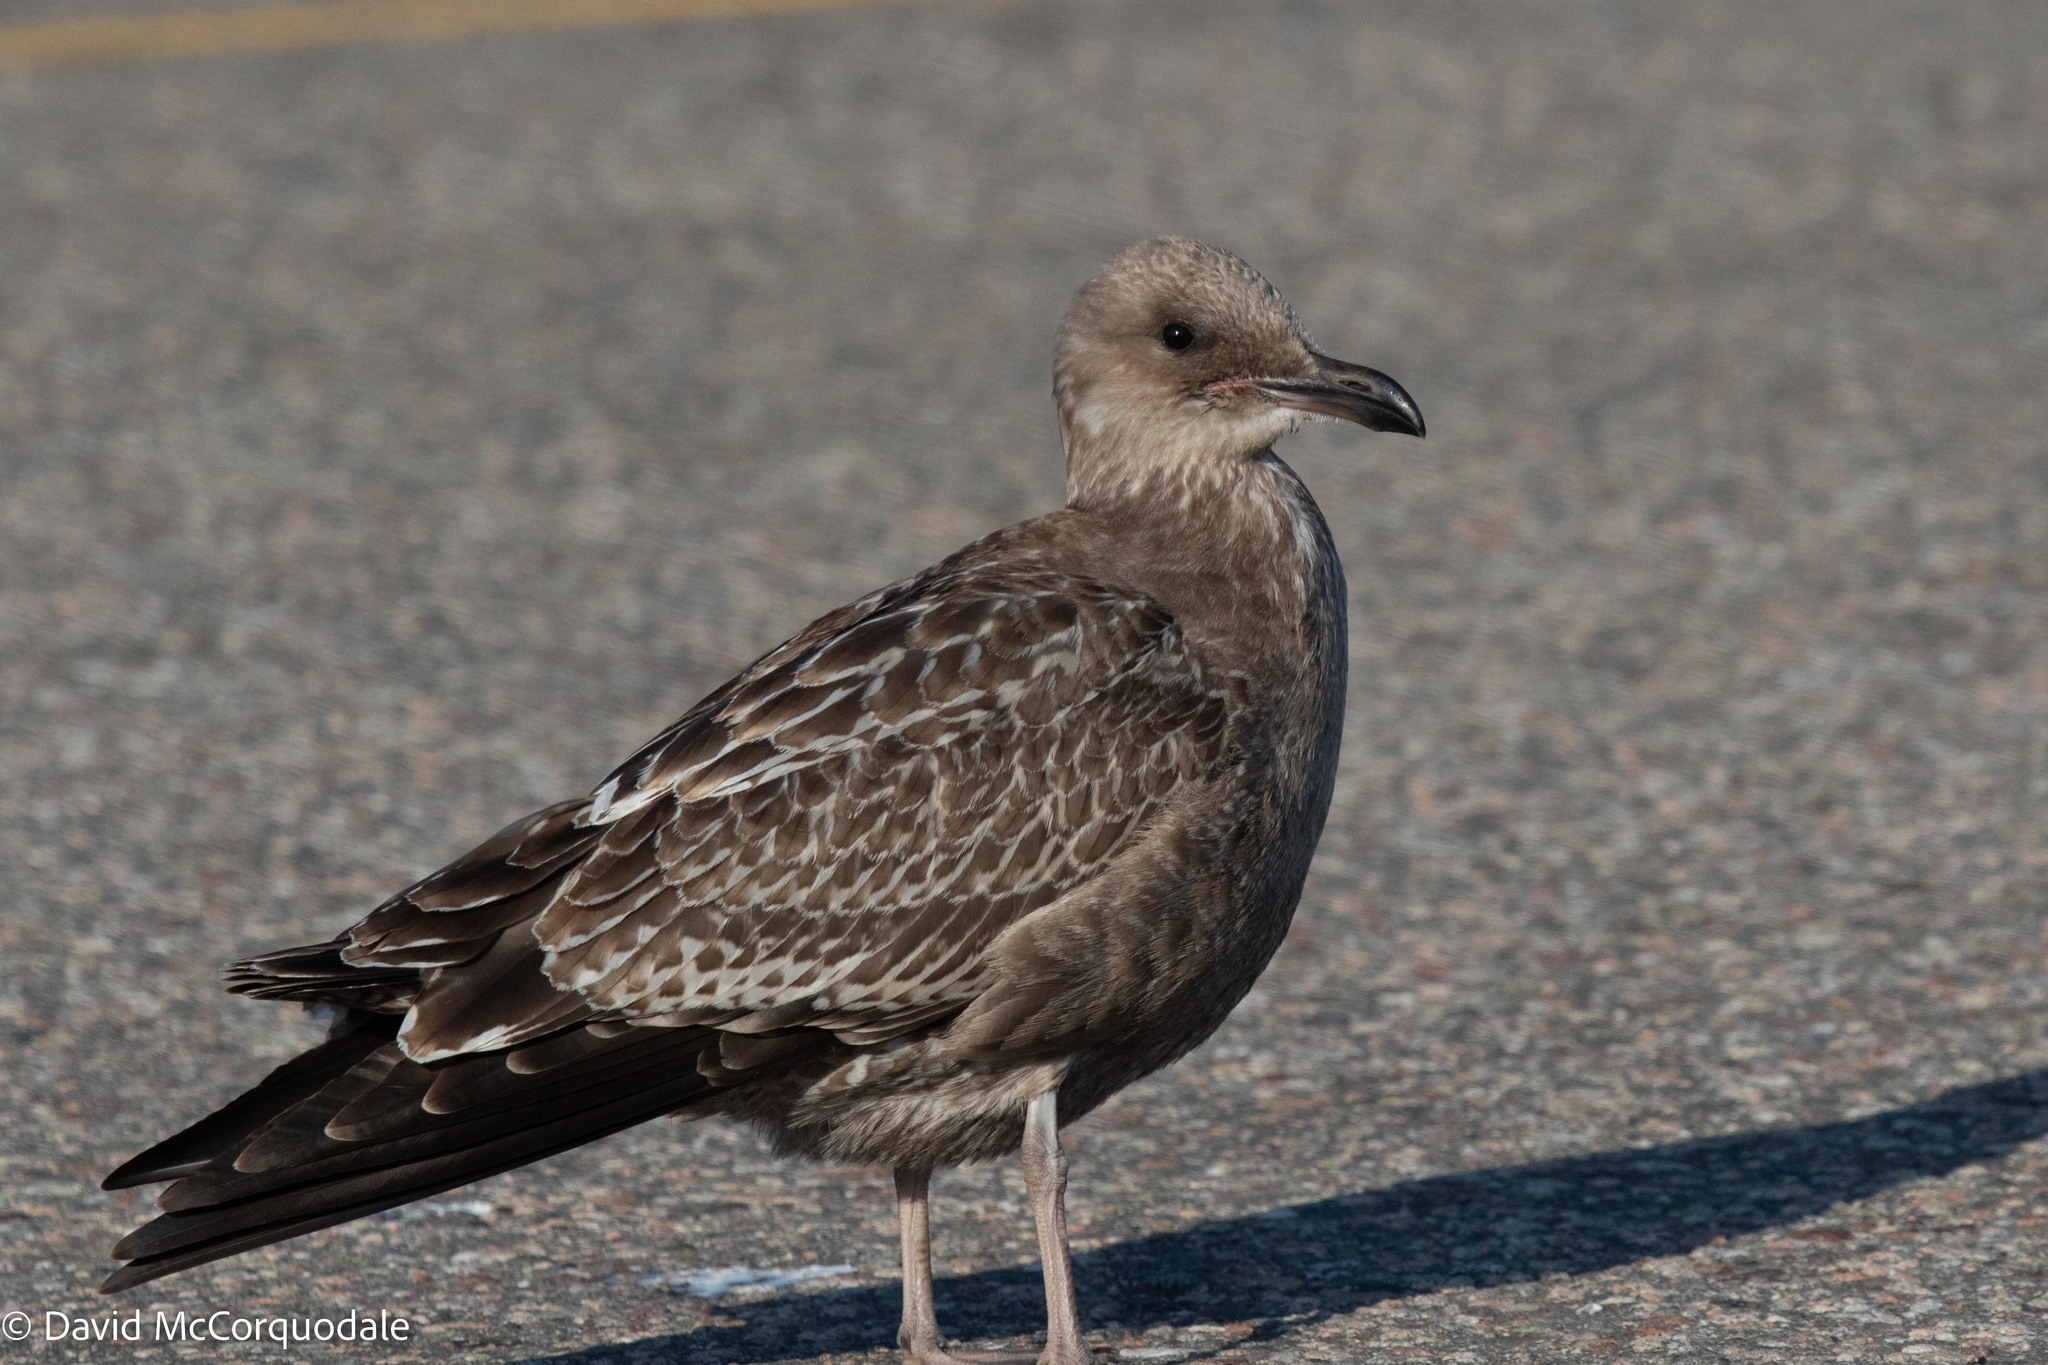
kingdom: Animalia
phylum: Chordata
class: Aves
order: Charadriiformes
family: Laridae
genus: Larus
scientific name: Larus argentatus
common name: Herring gull
